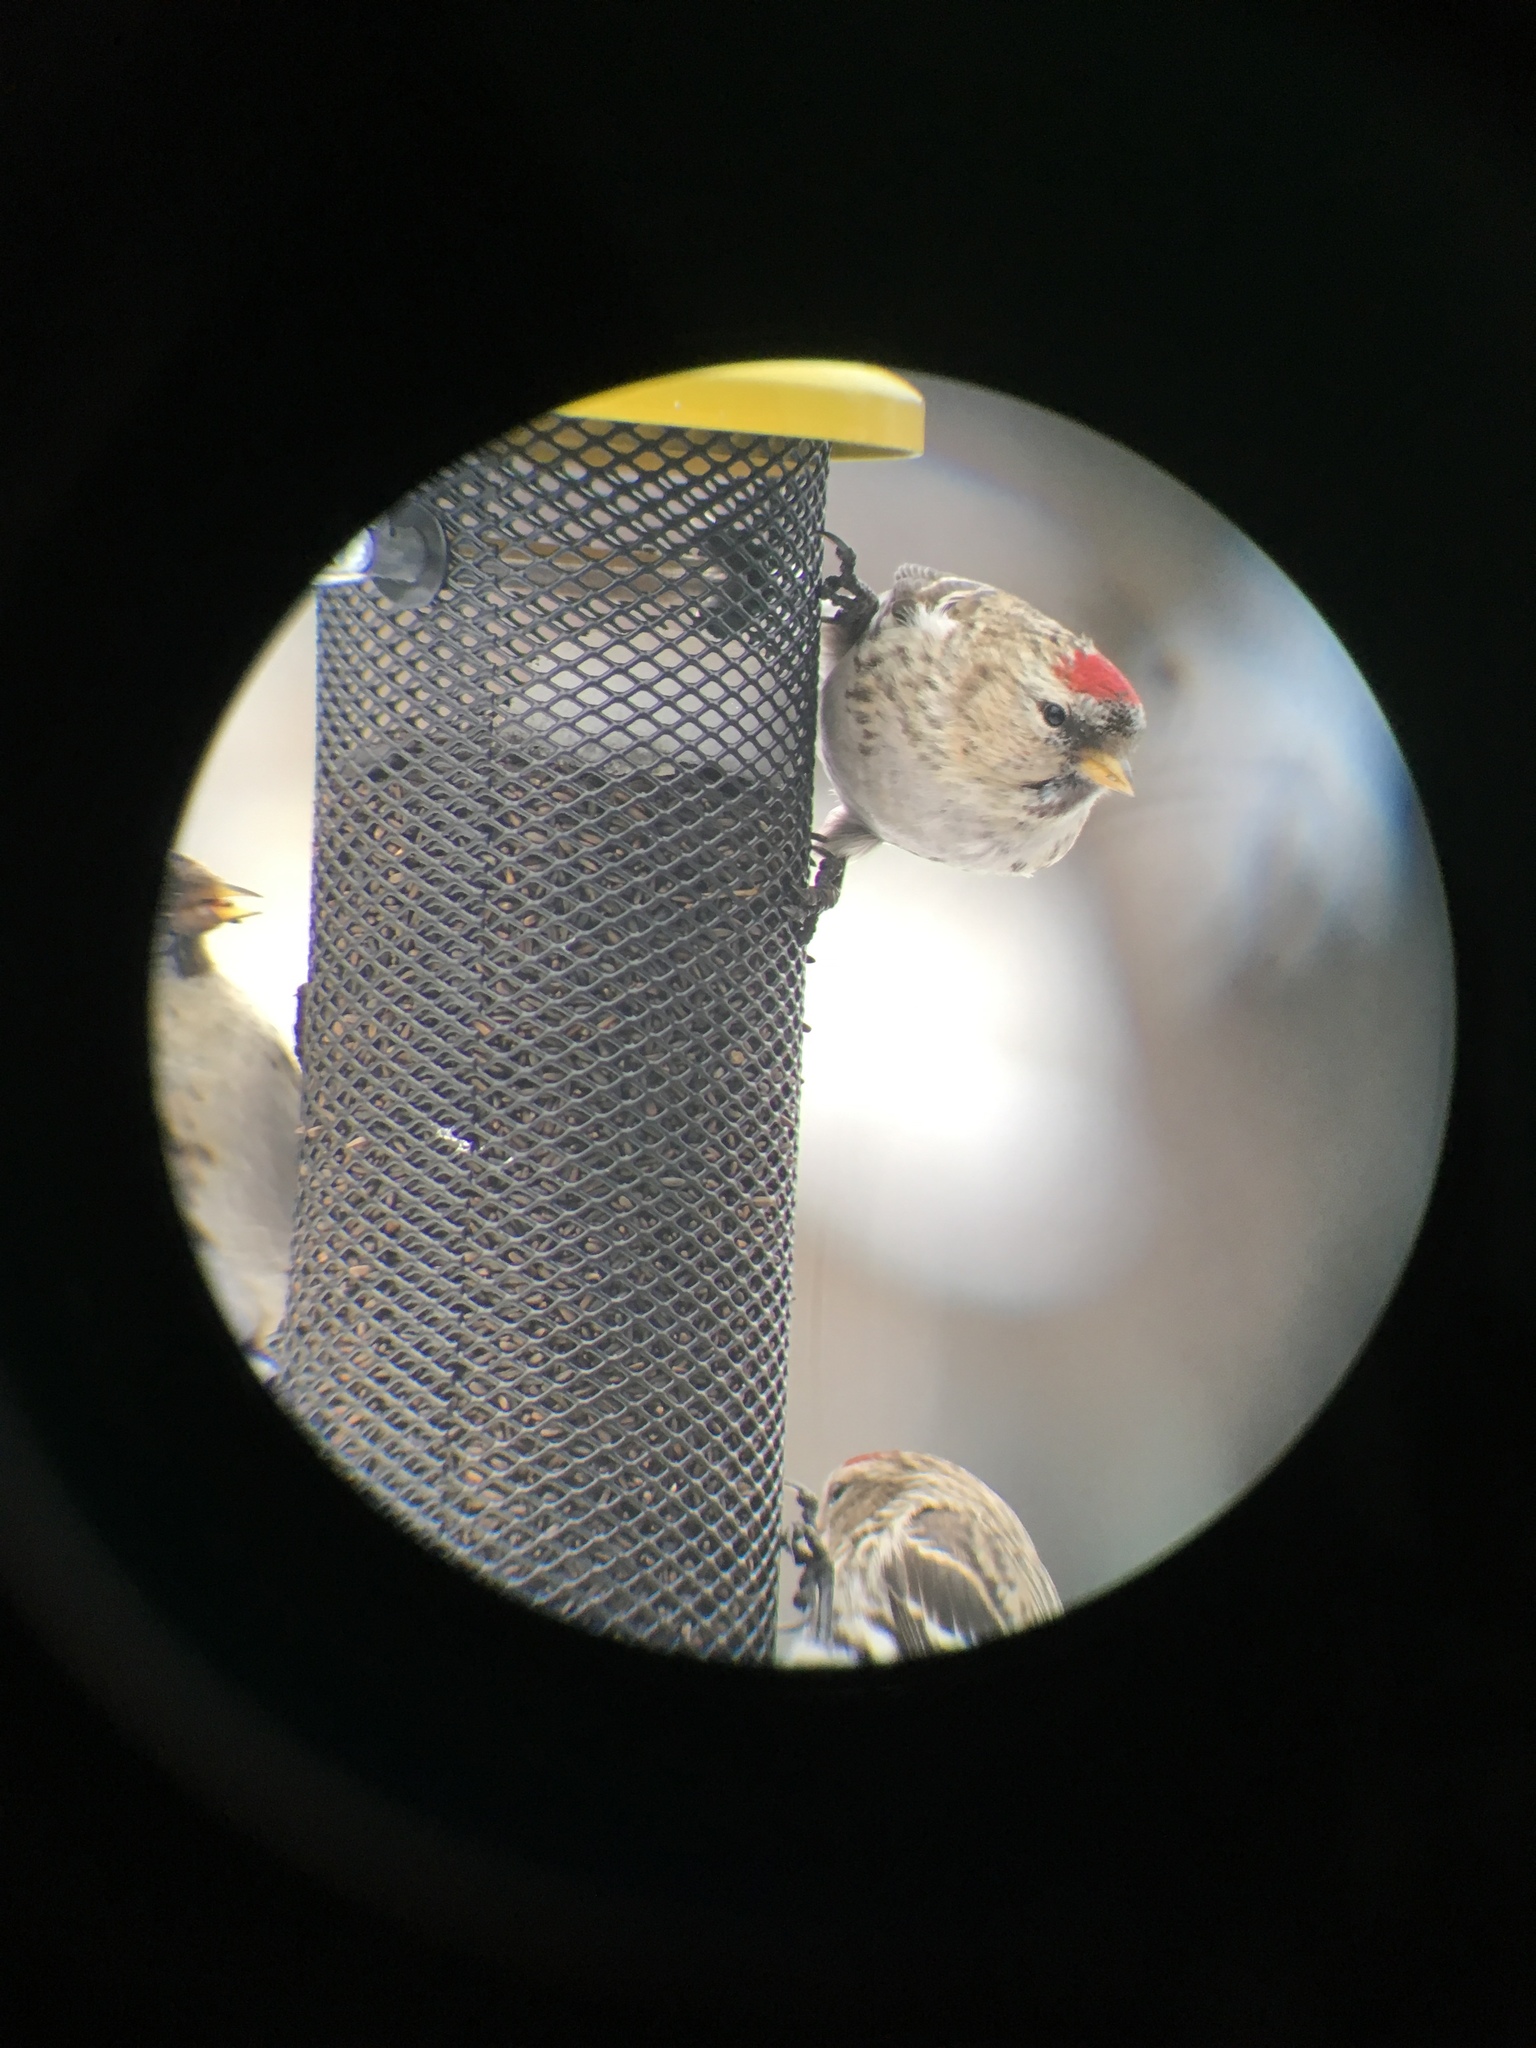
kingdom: Animalia
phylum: Chordata
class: Aves
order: Passeriformes
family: Fringillidae
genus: Acanthis
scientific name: Acanthis flammea
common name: Common redpoll
